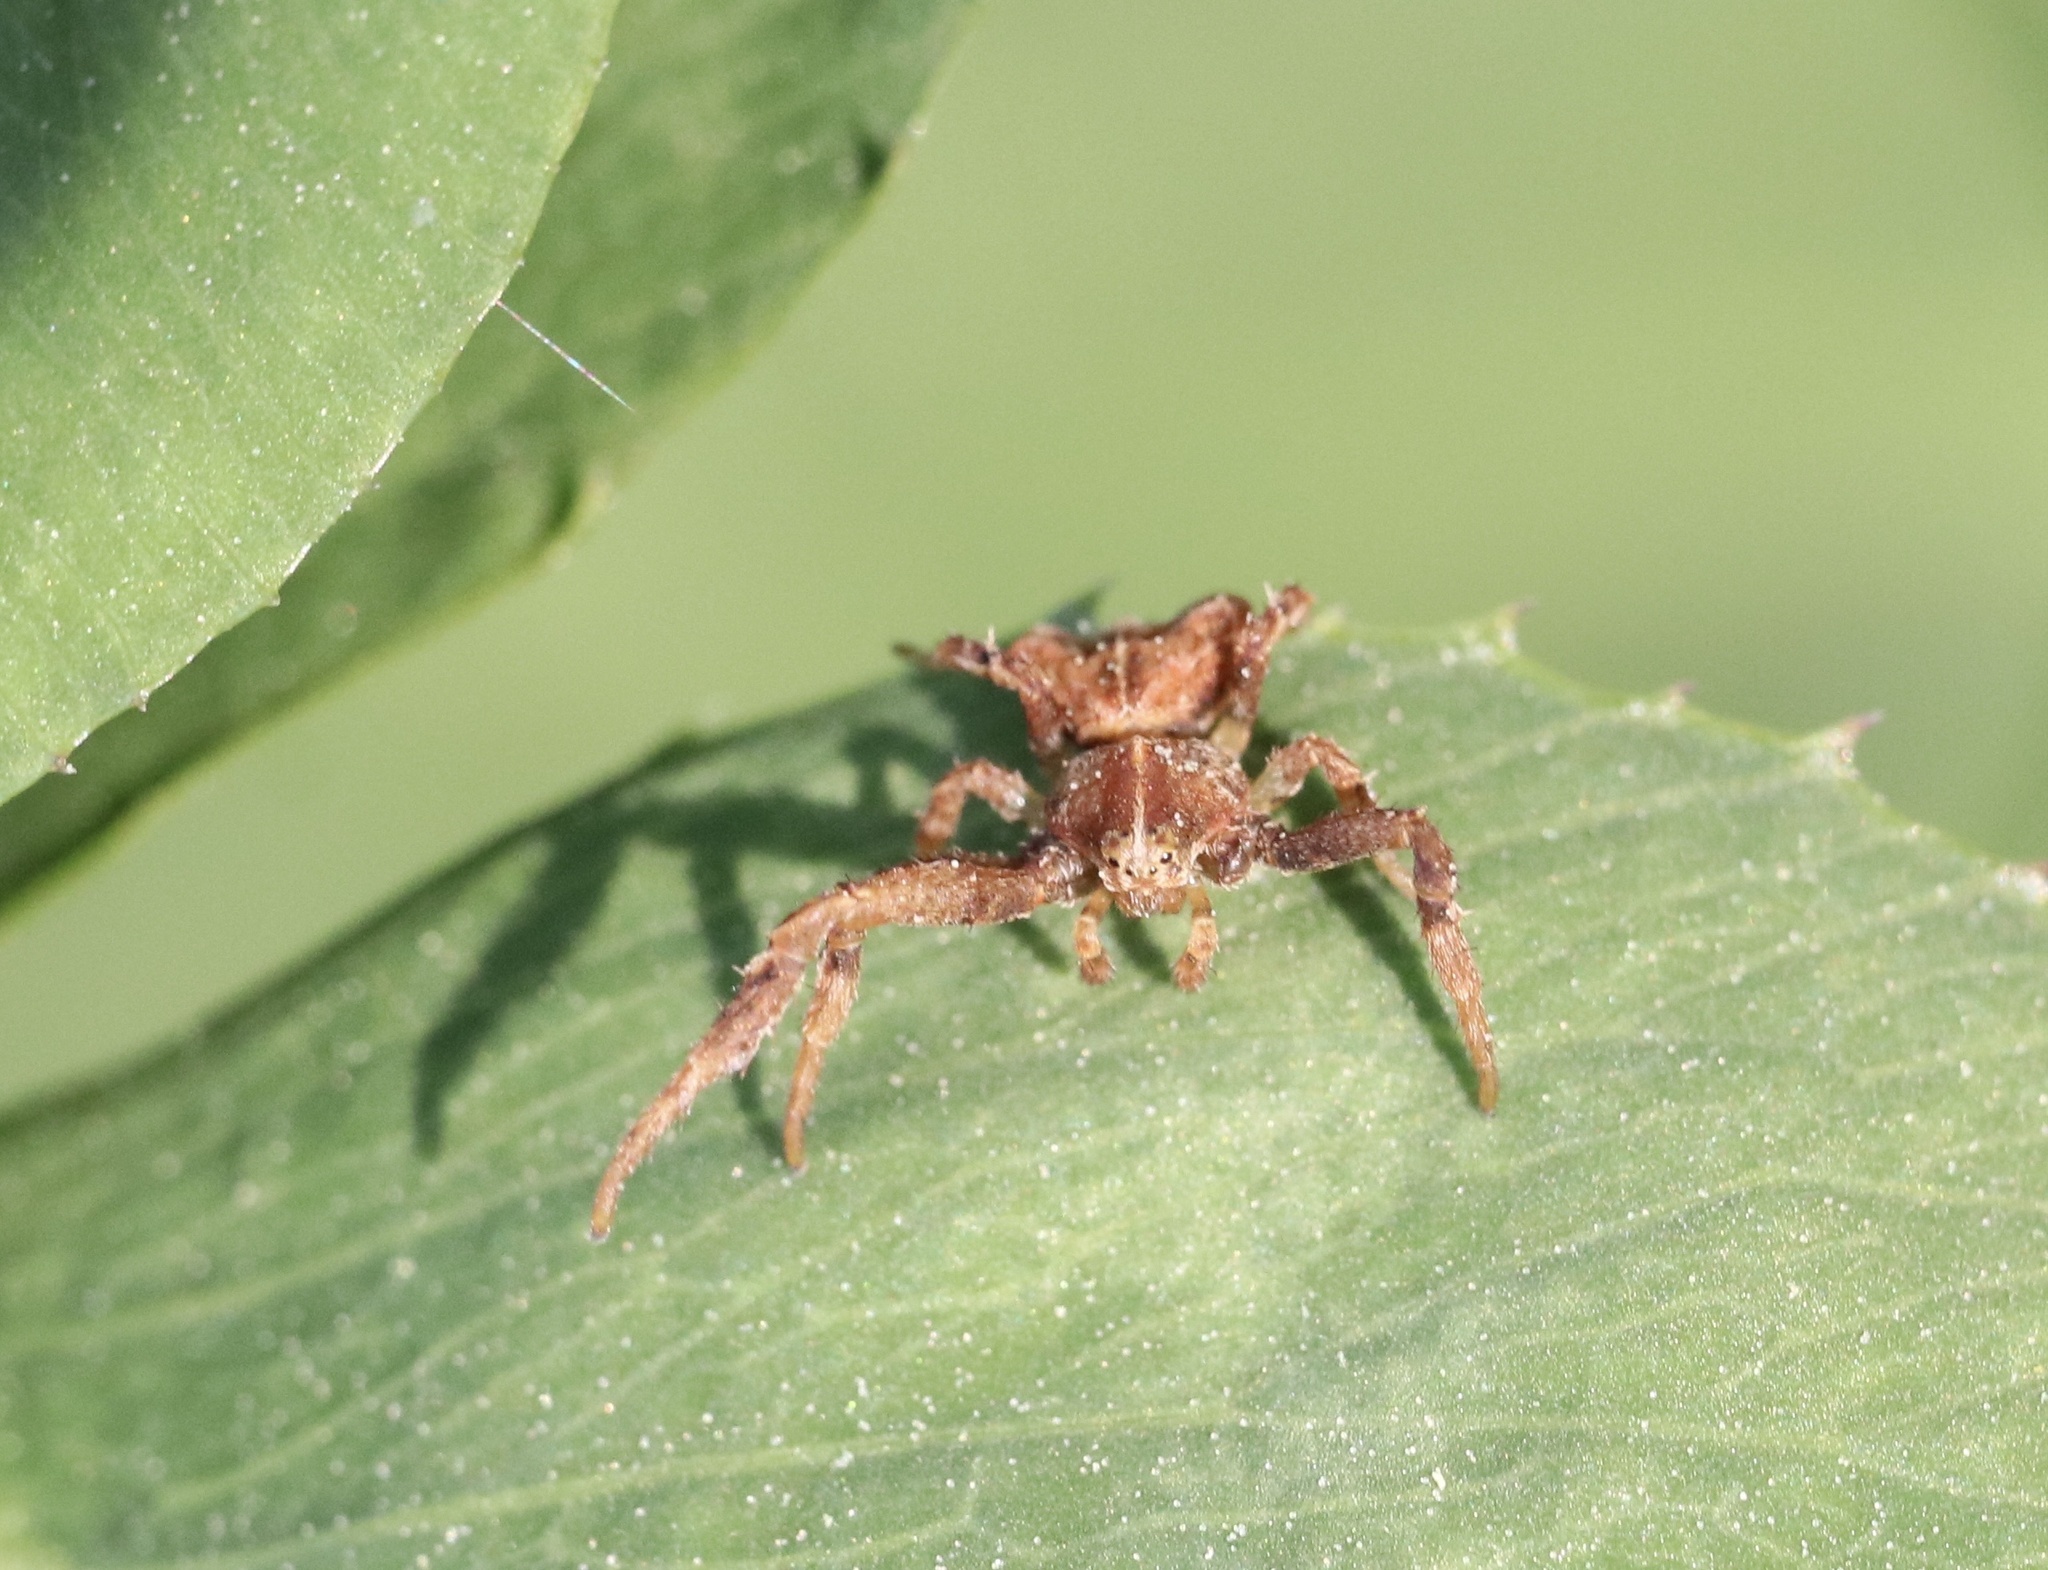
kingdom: Animalia
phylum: Arthropoda
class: Arachnida
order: Araneae
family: Thomisidae
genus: Coenypha
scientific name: Coenypha ditissima
